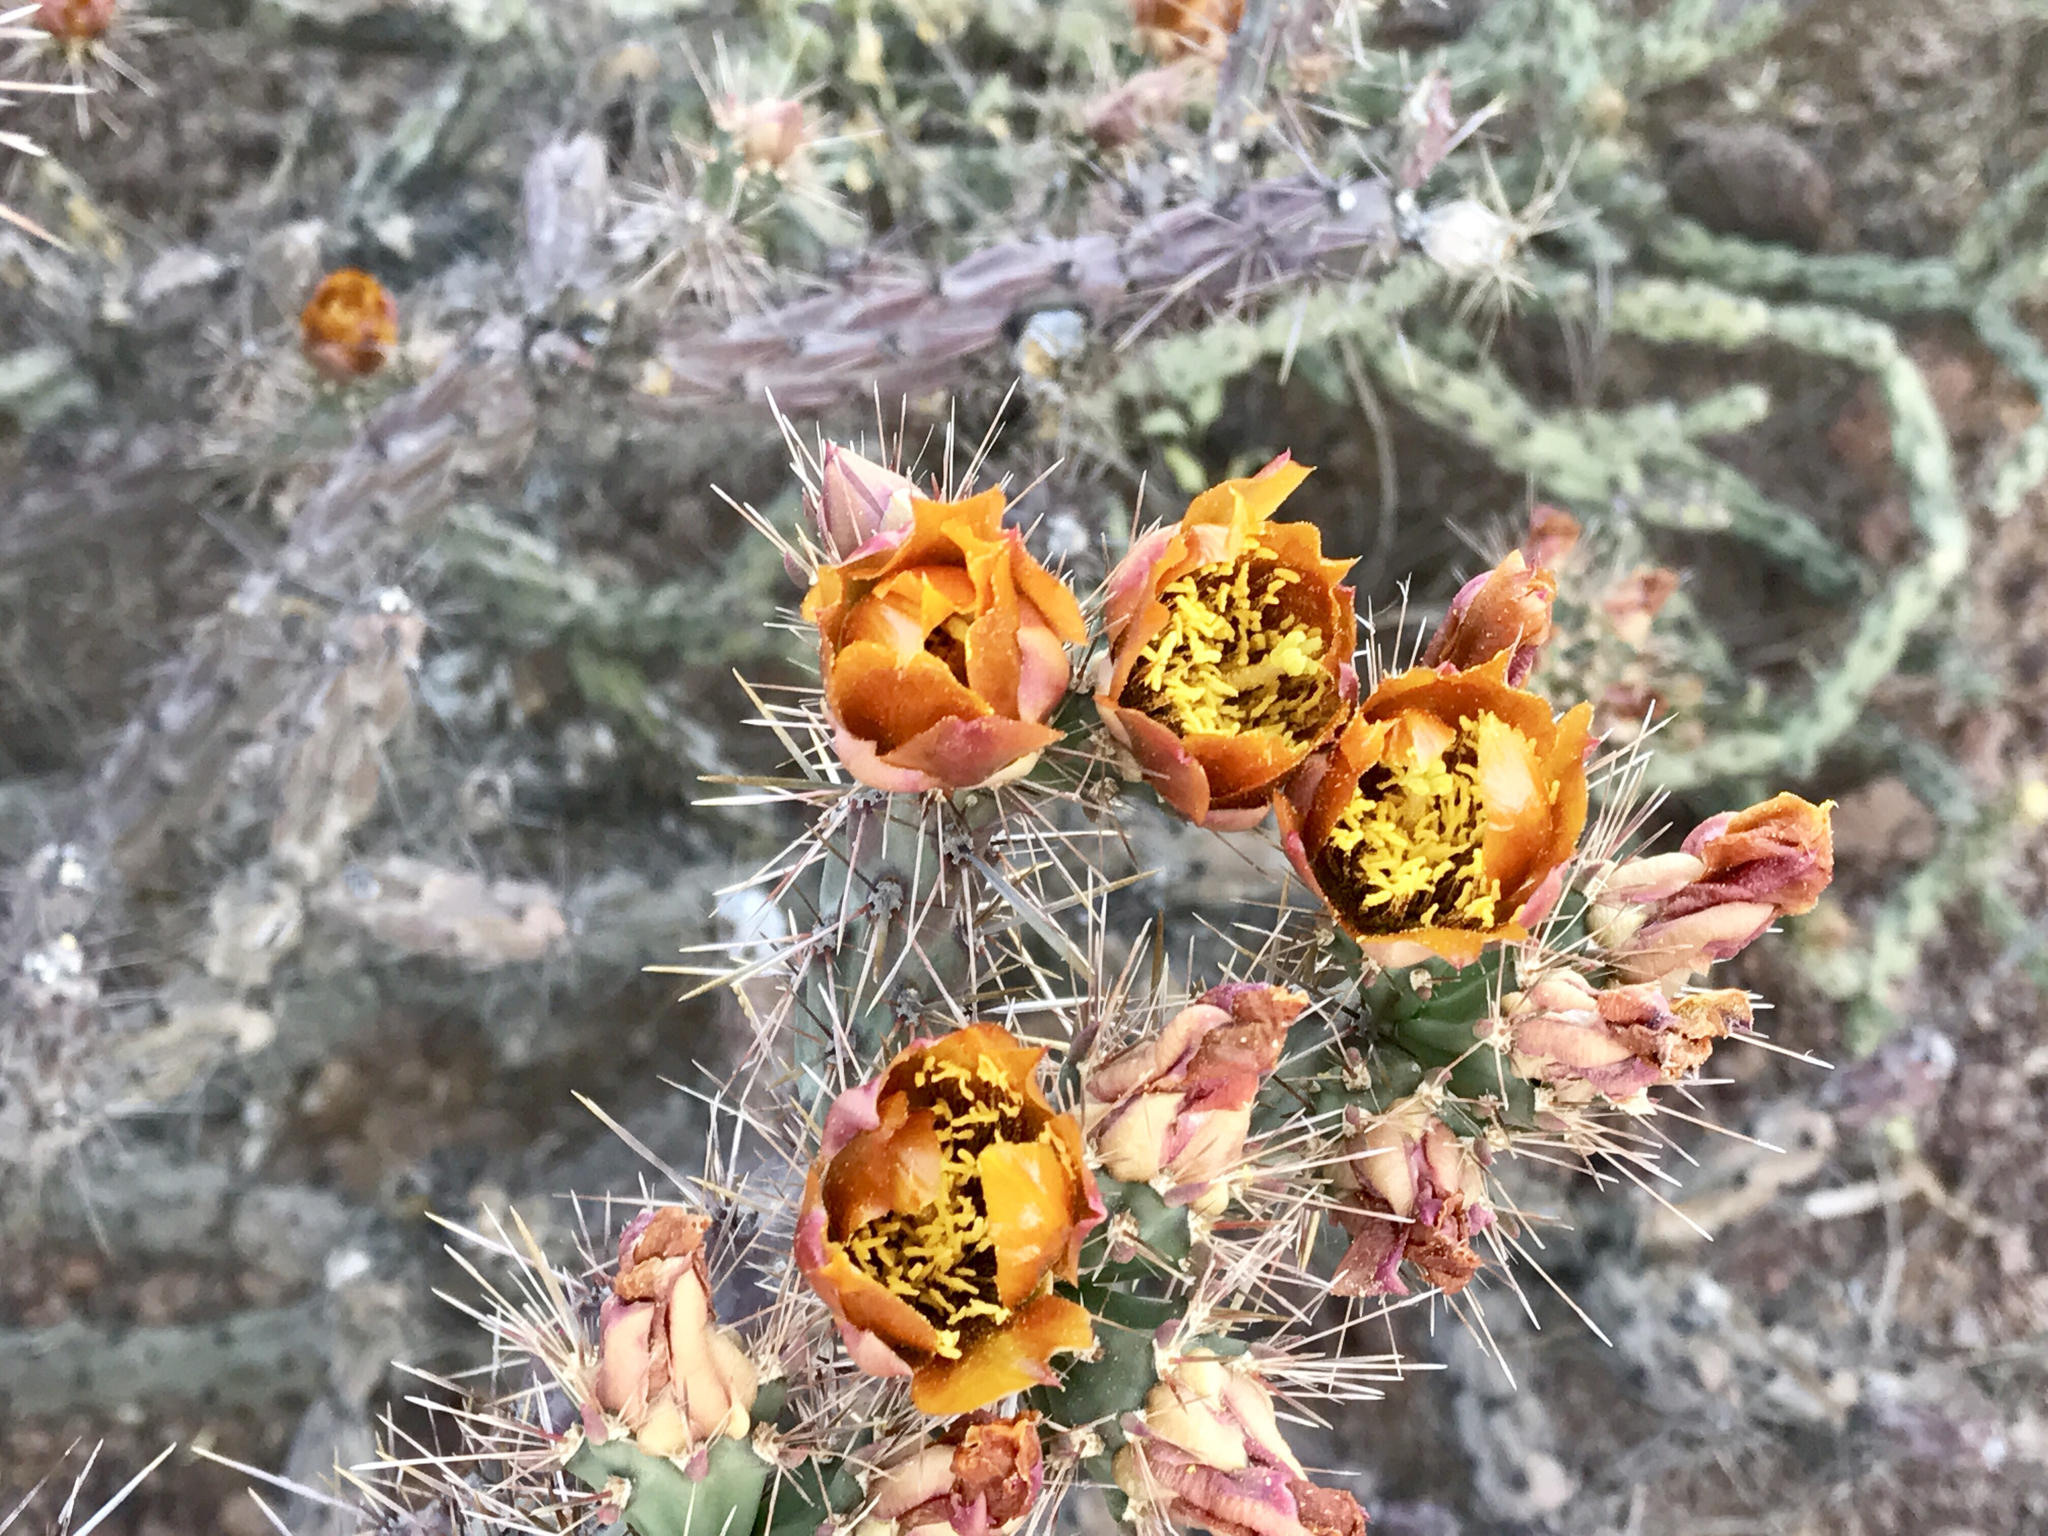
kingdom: Plantae
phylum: Tracheophyta
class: Magnoliopsida
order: Caryophyllales
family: Cactaceae
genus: Cylindropuntia
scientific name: Cylindropuntia thurberi
